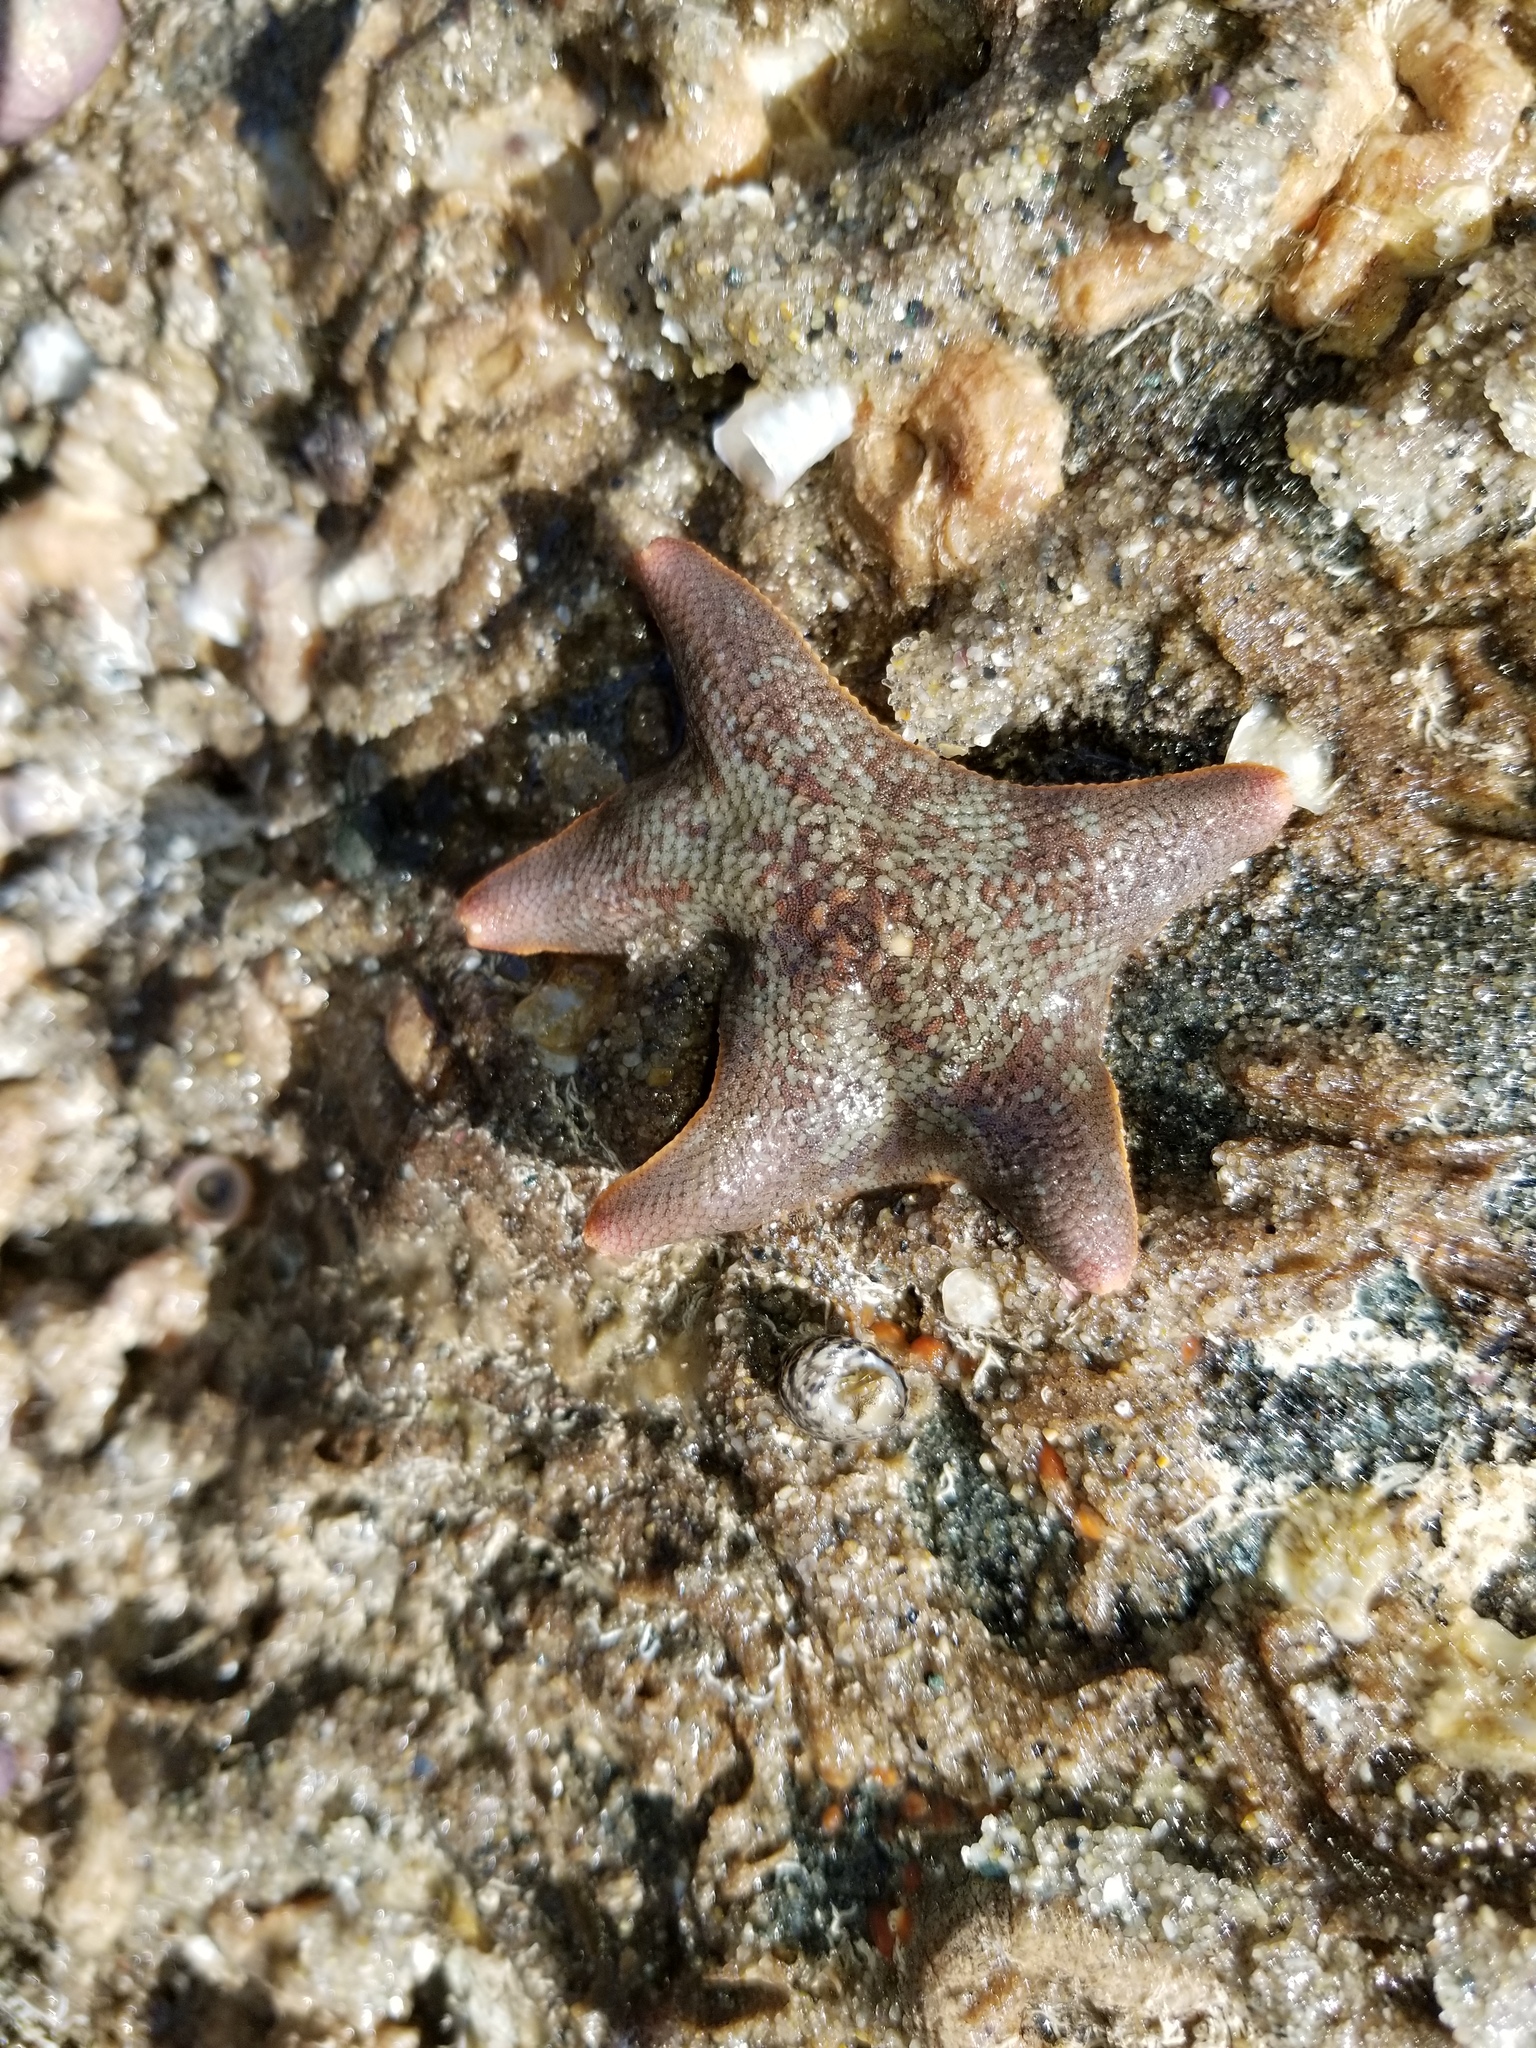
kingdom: Animalia
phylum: Echinodermata
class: Asteroidea
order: Valvatida
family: Asterinidae
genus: Patiria
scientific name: Patiria miniata
